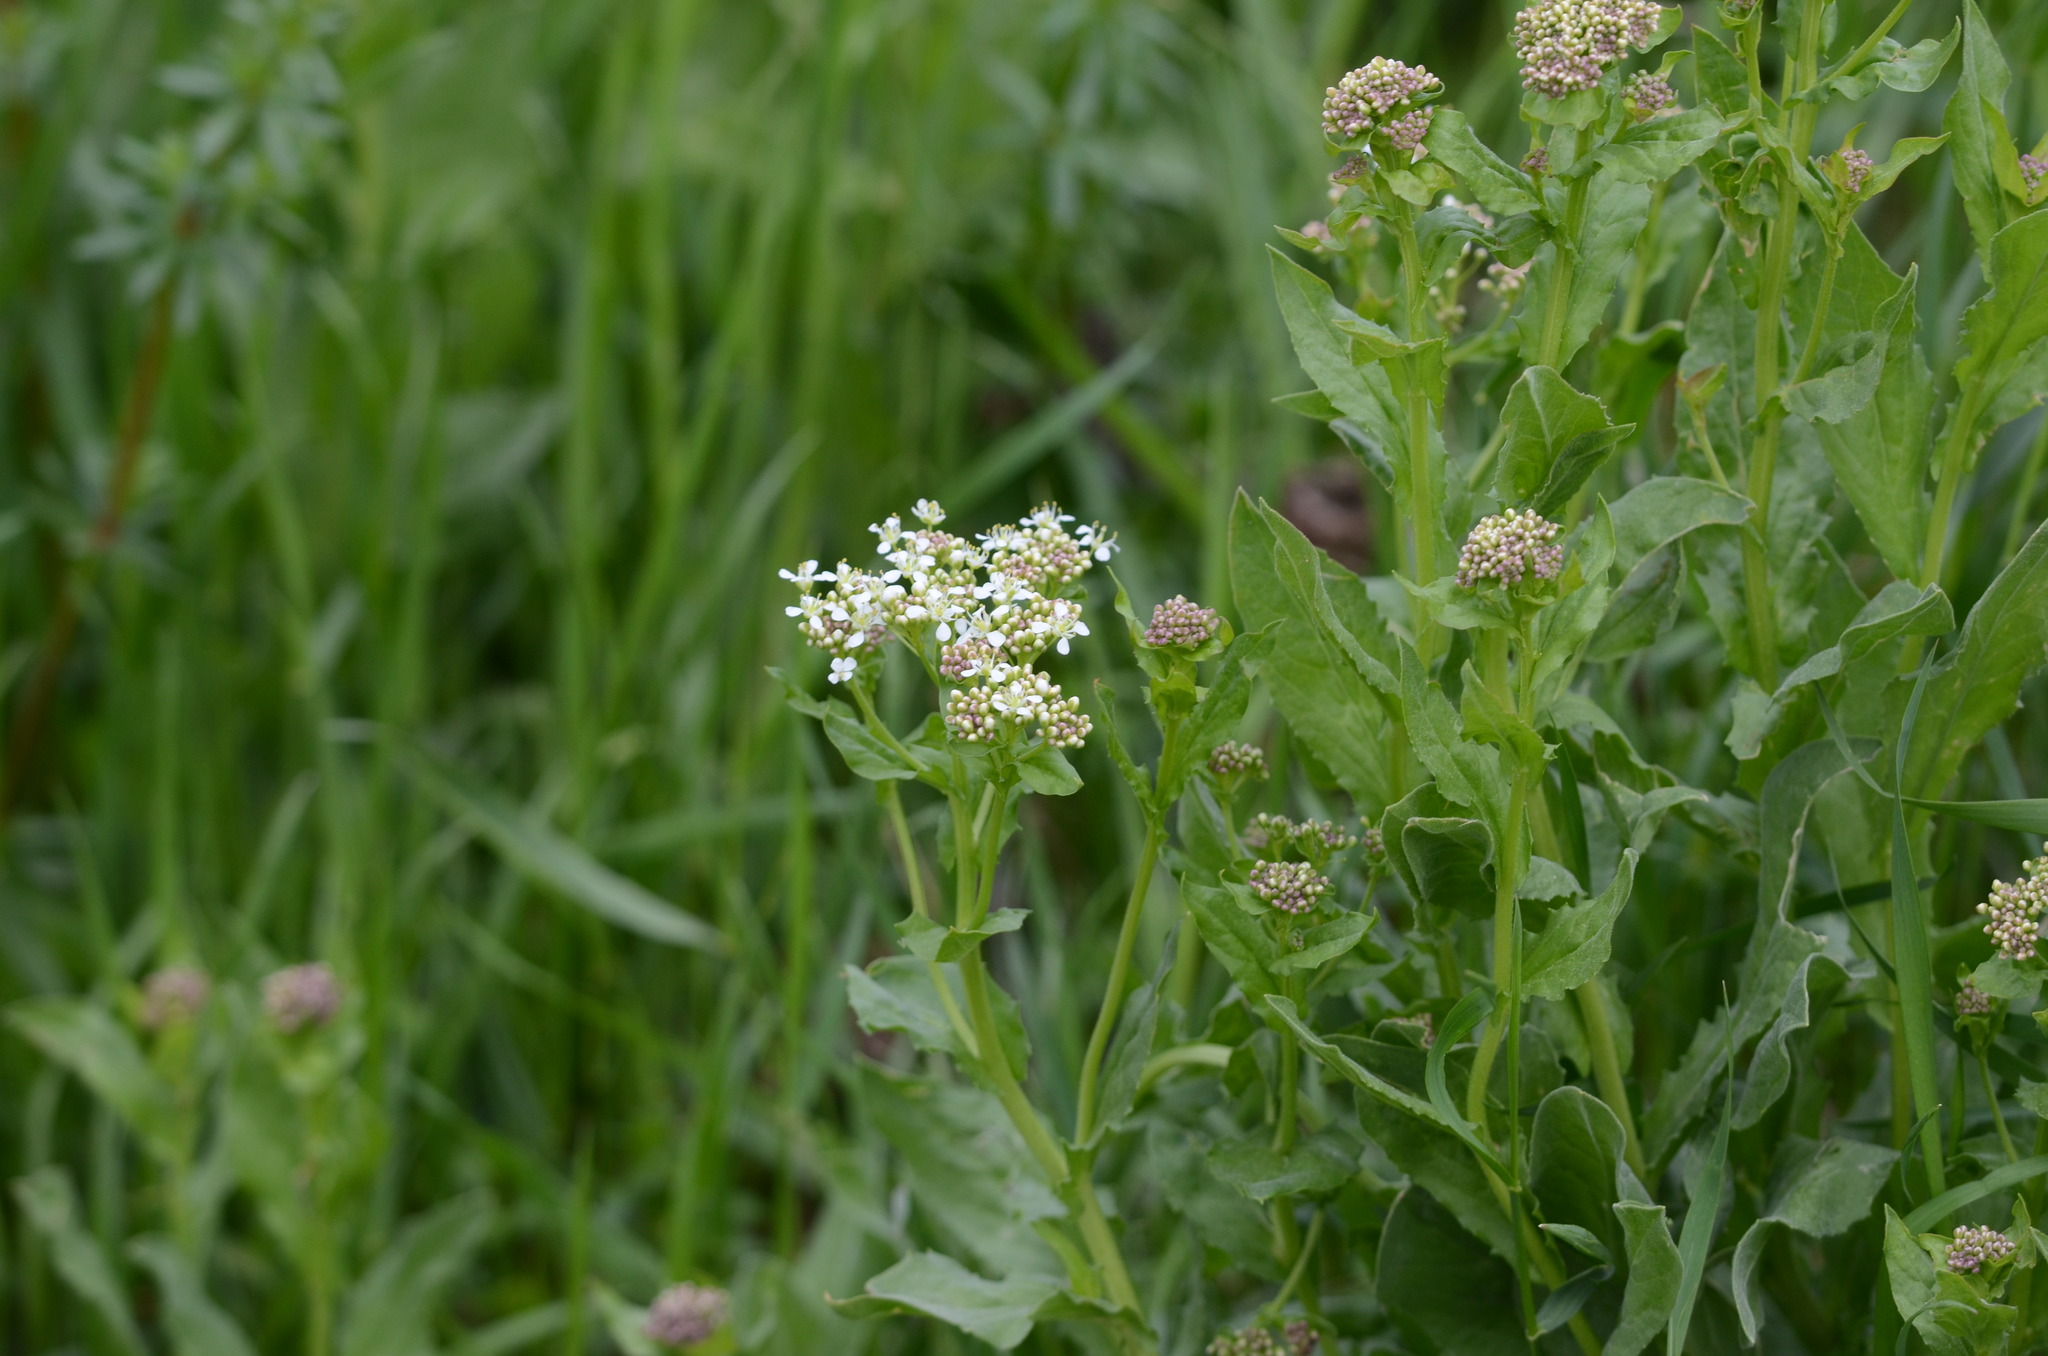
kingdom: Plantae
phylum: Tracheophyta
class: Magnoliopsida
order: Brassicales
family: Brassicaceae
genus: Lepidium
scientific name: Lepidium draba
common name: Hoary cress
